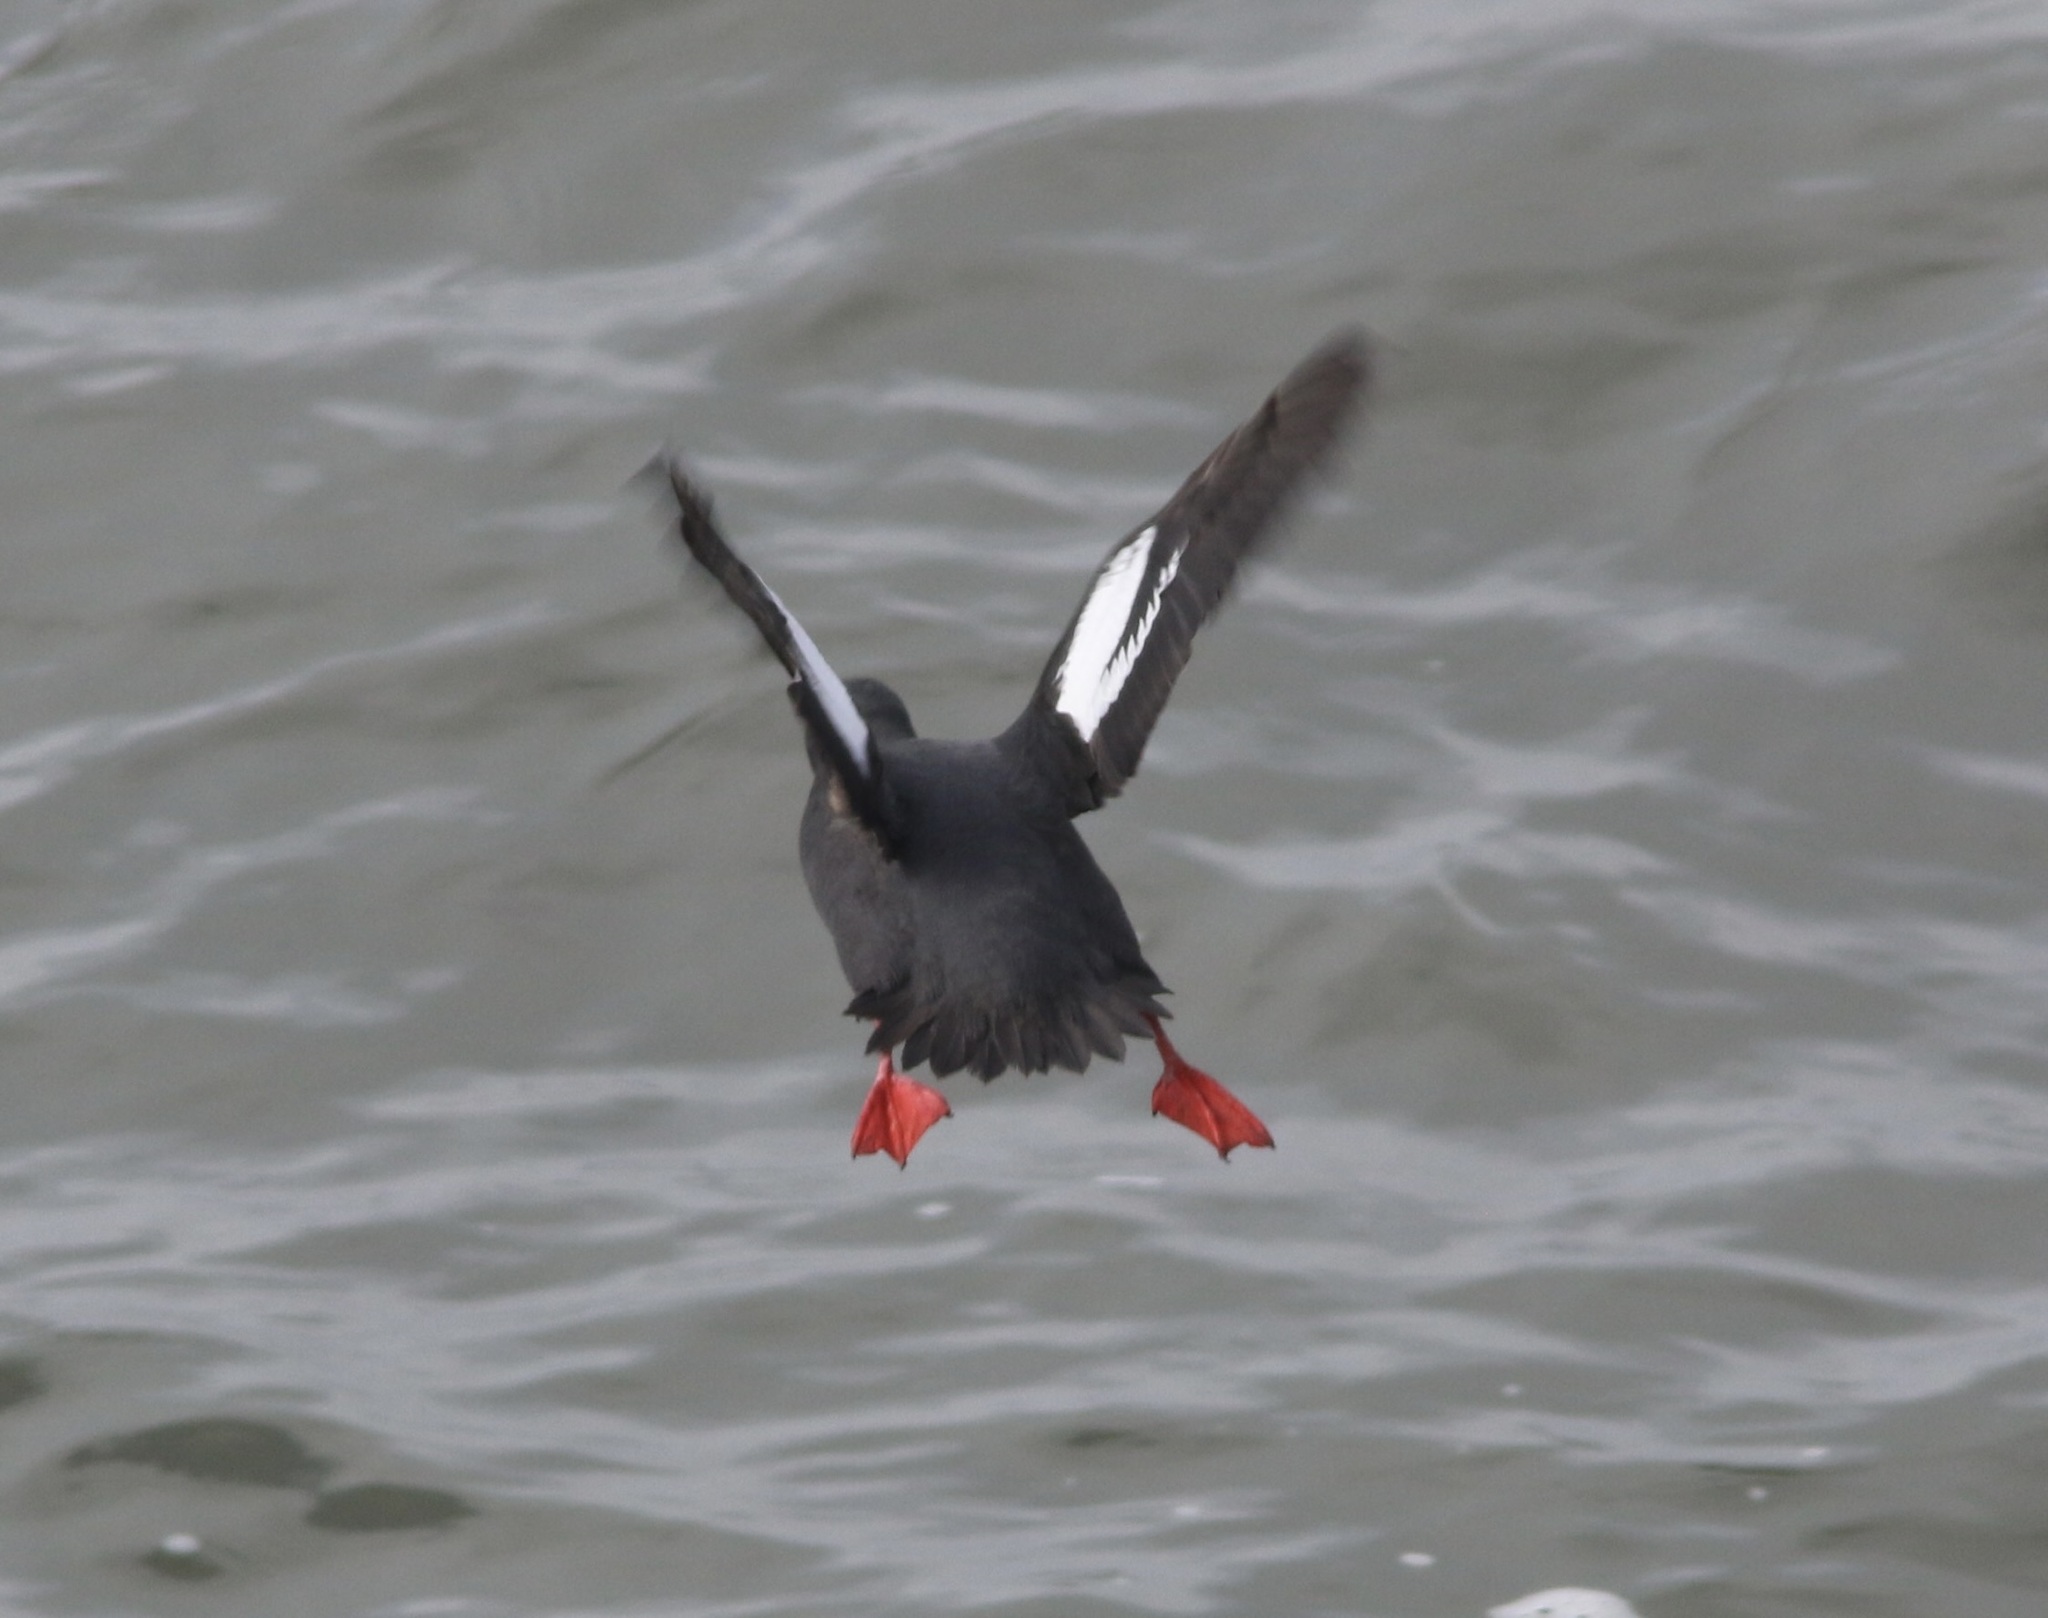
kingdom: Animalia
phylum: Chordata
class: Aves
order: Charadriiformes
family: Alcidae
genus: Cepphus
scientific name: Cepphus columba
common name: Pigeon guillemot
